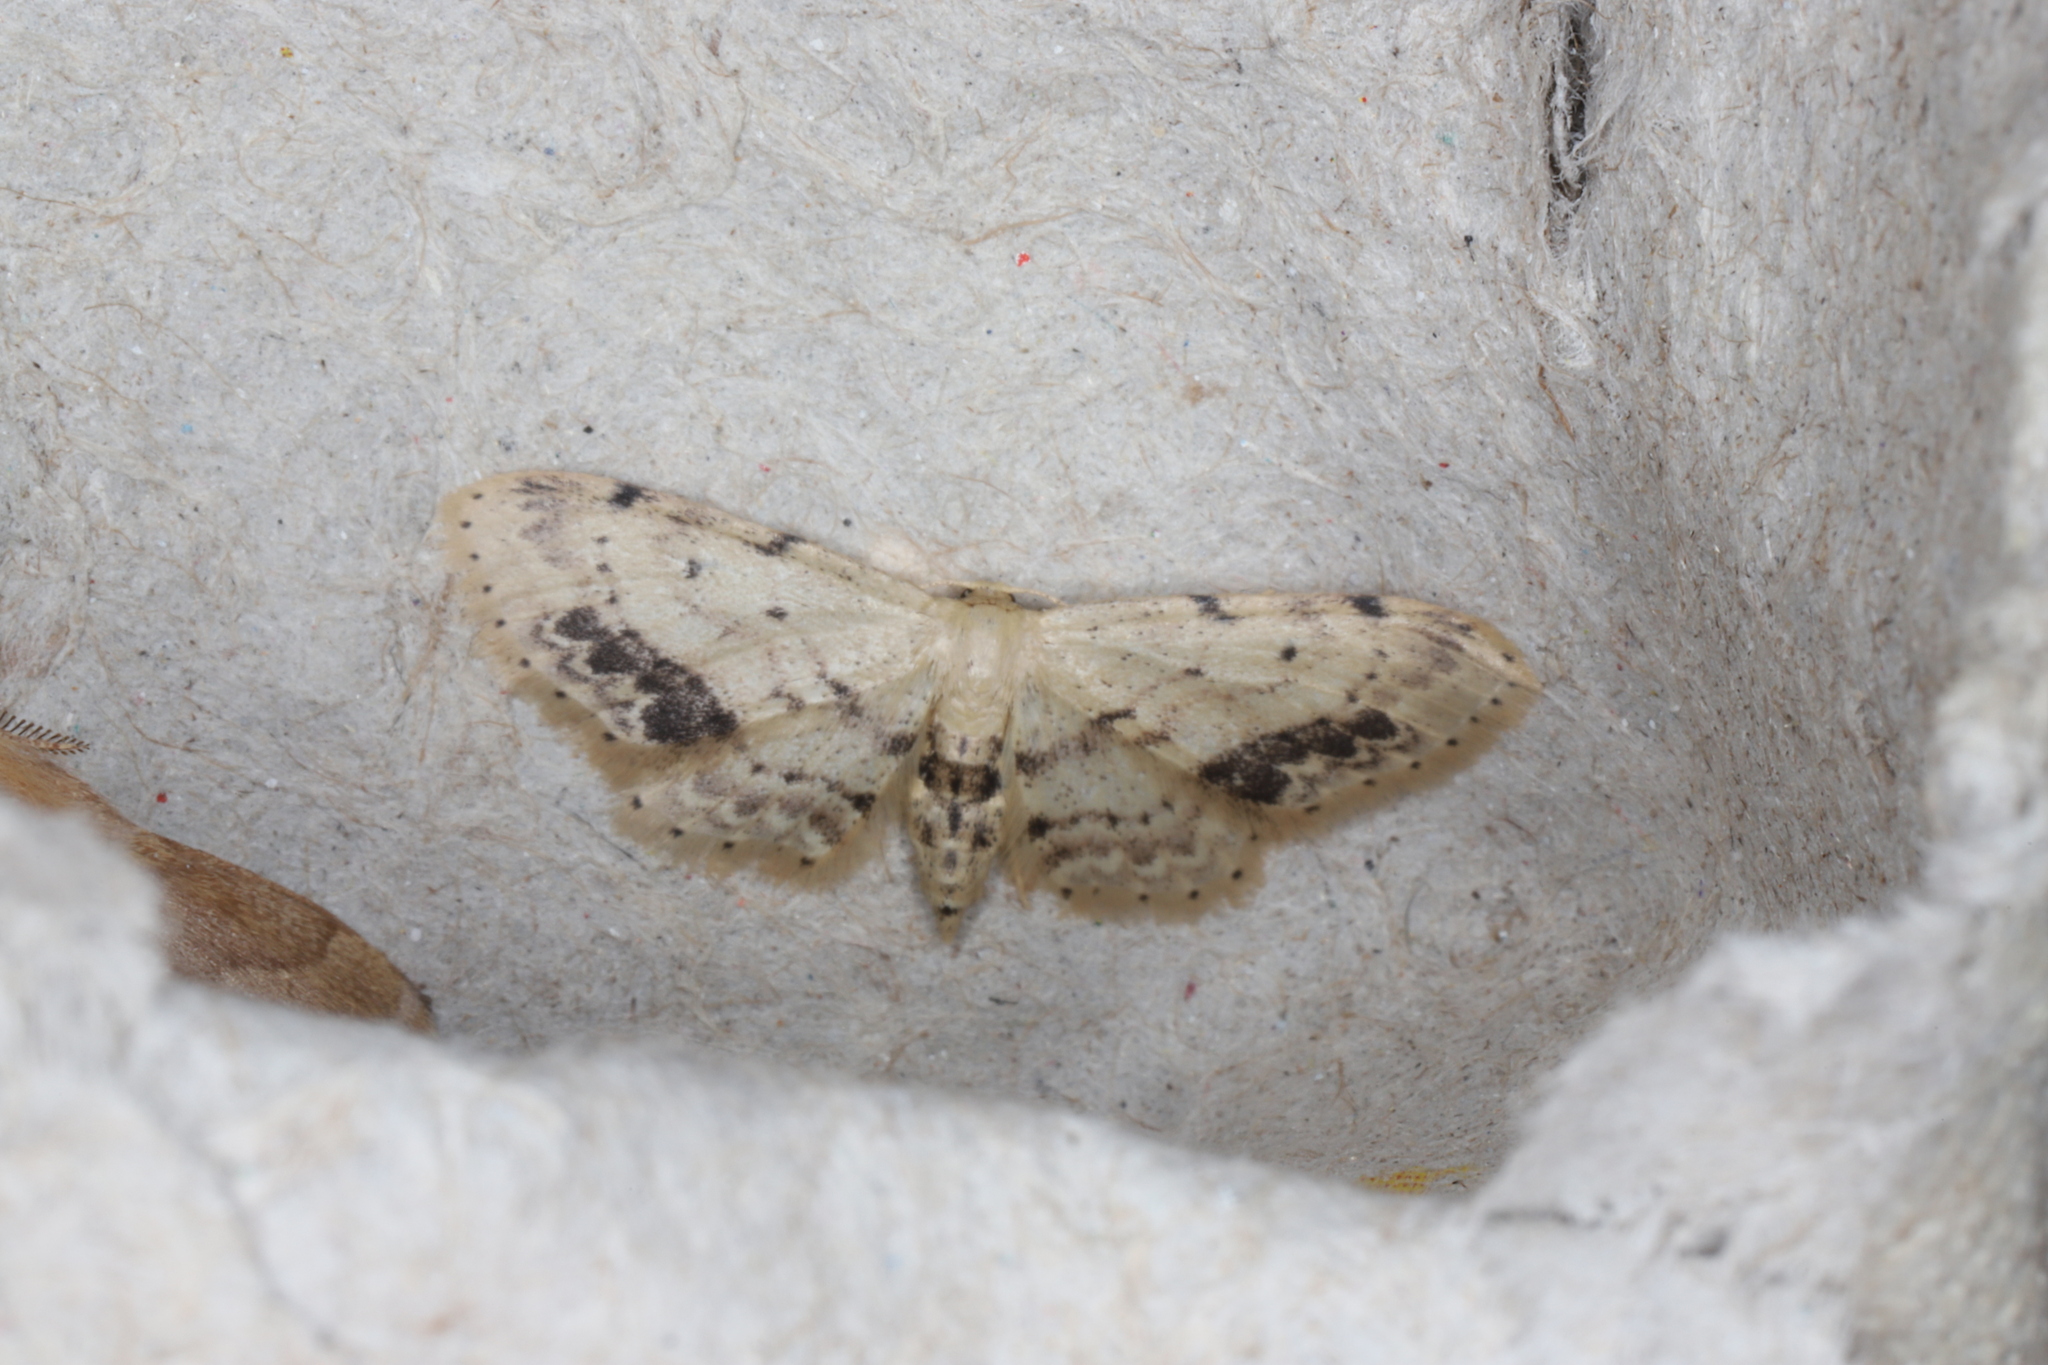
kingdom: Animalia
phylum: Arthropoda
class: Insecta
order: Lepidoptera
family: Geometridae
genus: Idaea
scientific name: Idaea dimidiata
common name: Single-dotted wave
